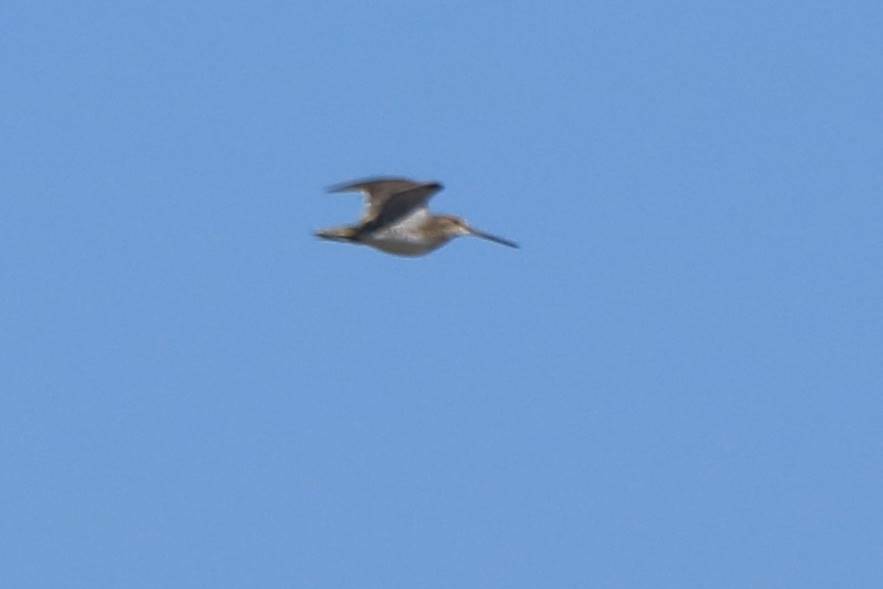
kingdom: Animalia
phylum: Chordata
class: Aves
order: Charadriiformes
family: Scolopacidae
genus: Gallinago
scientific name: Gallinago gallinago
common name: Common snipe
